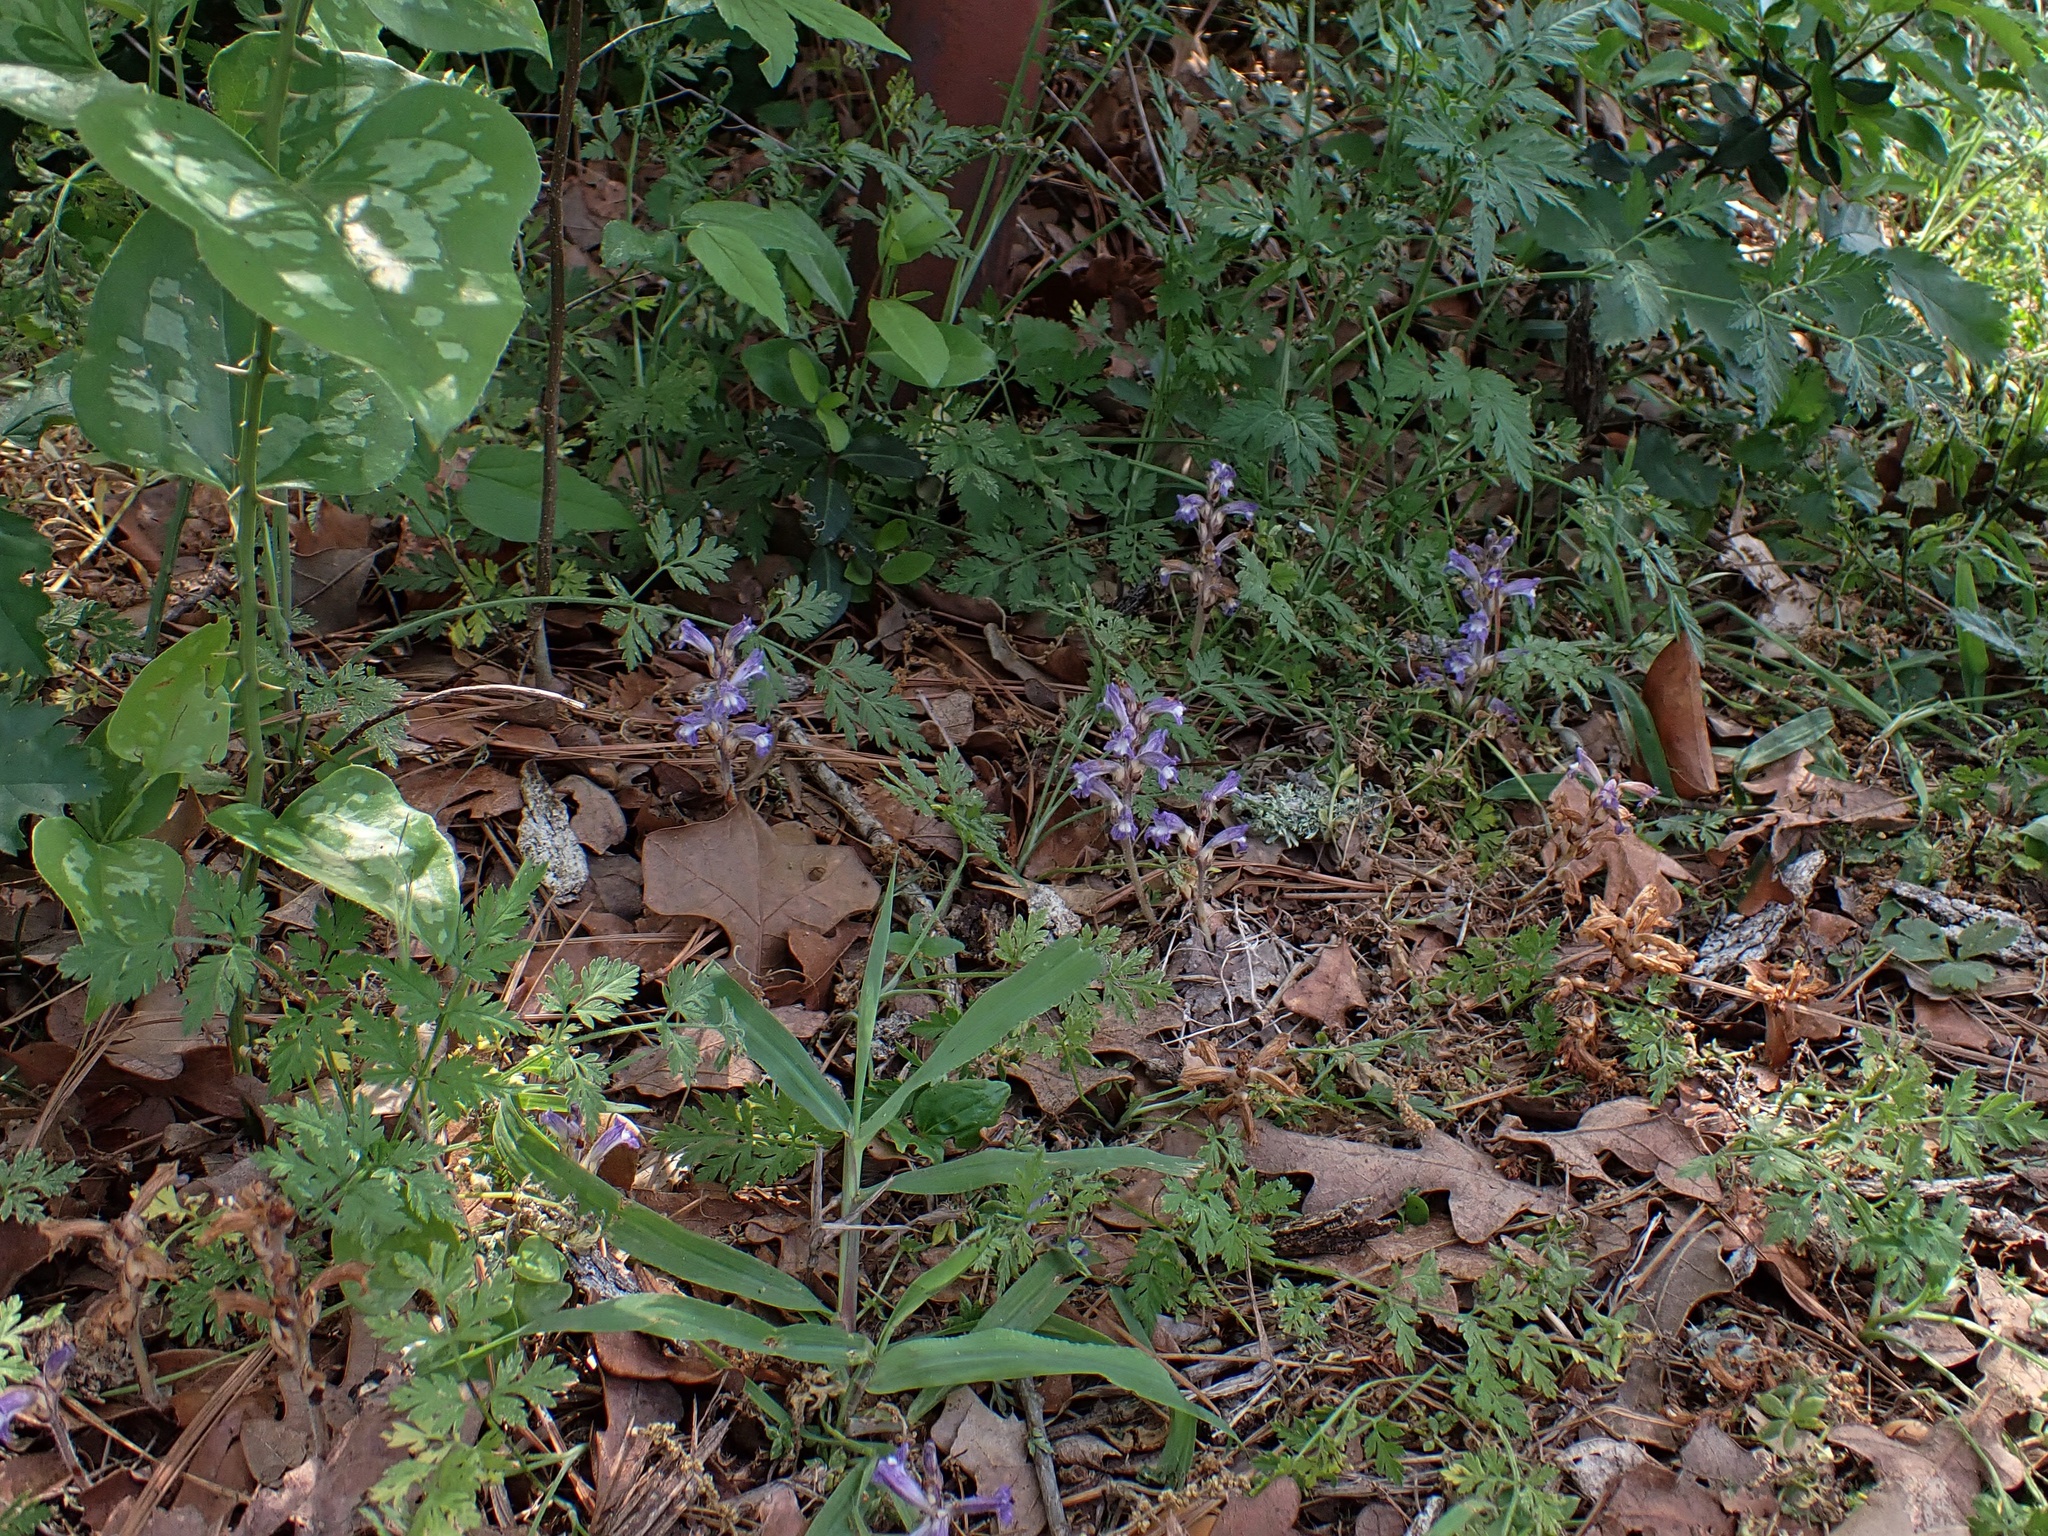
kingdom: Plantae
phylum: Tracheophyta
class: Magnoliopsida
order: Lamiales
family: Orobanchaceae
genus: Phelipanche
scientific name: Phelipanche mutelii
